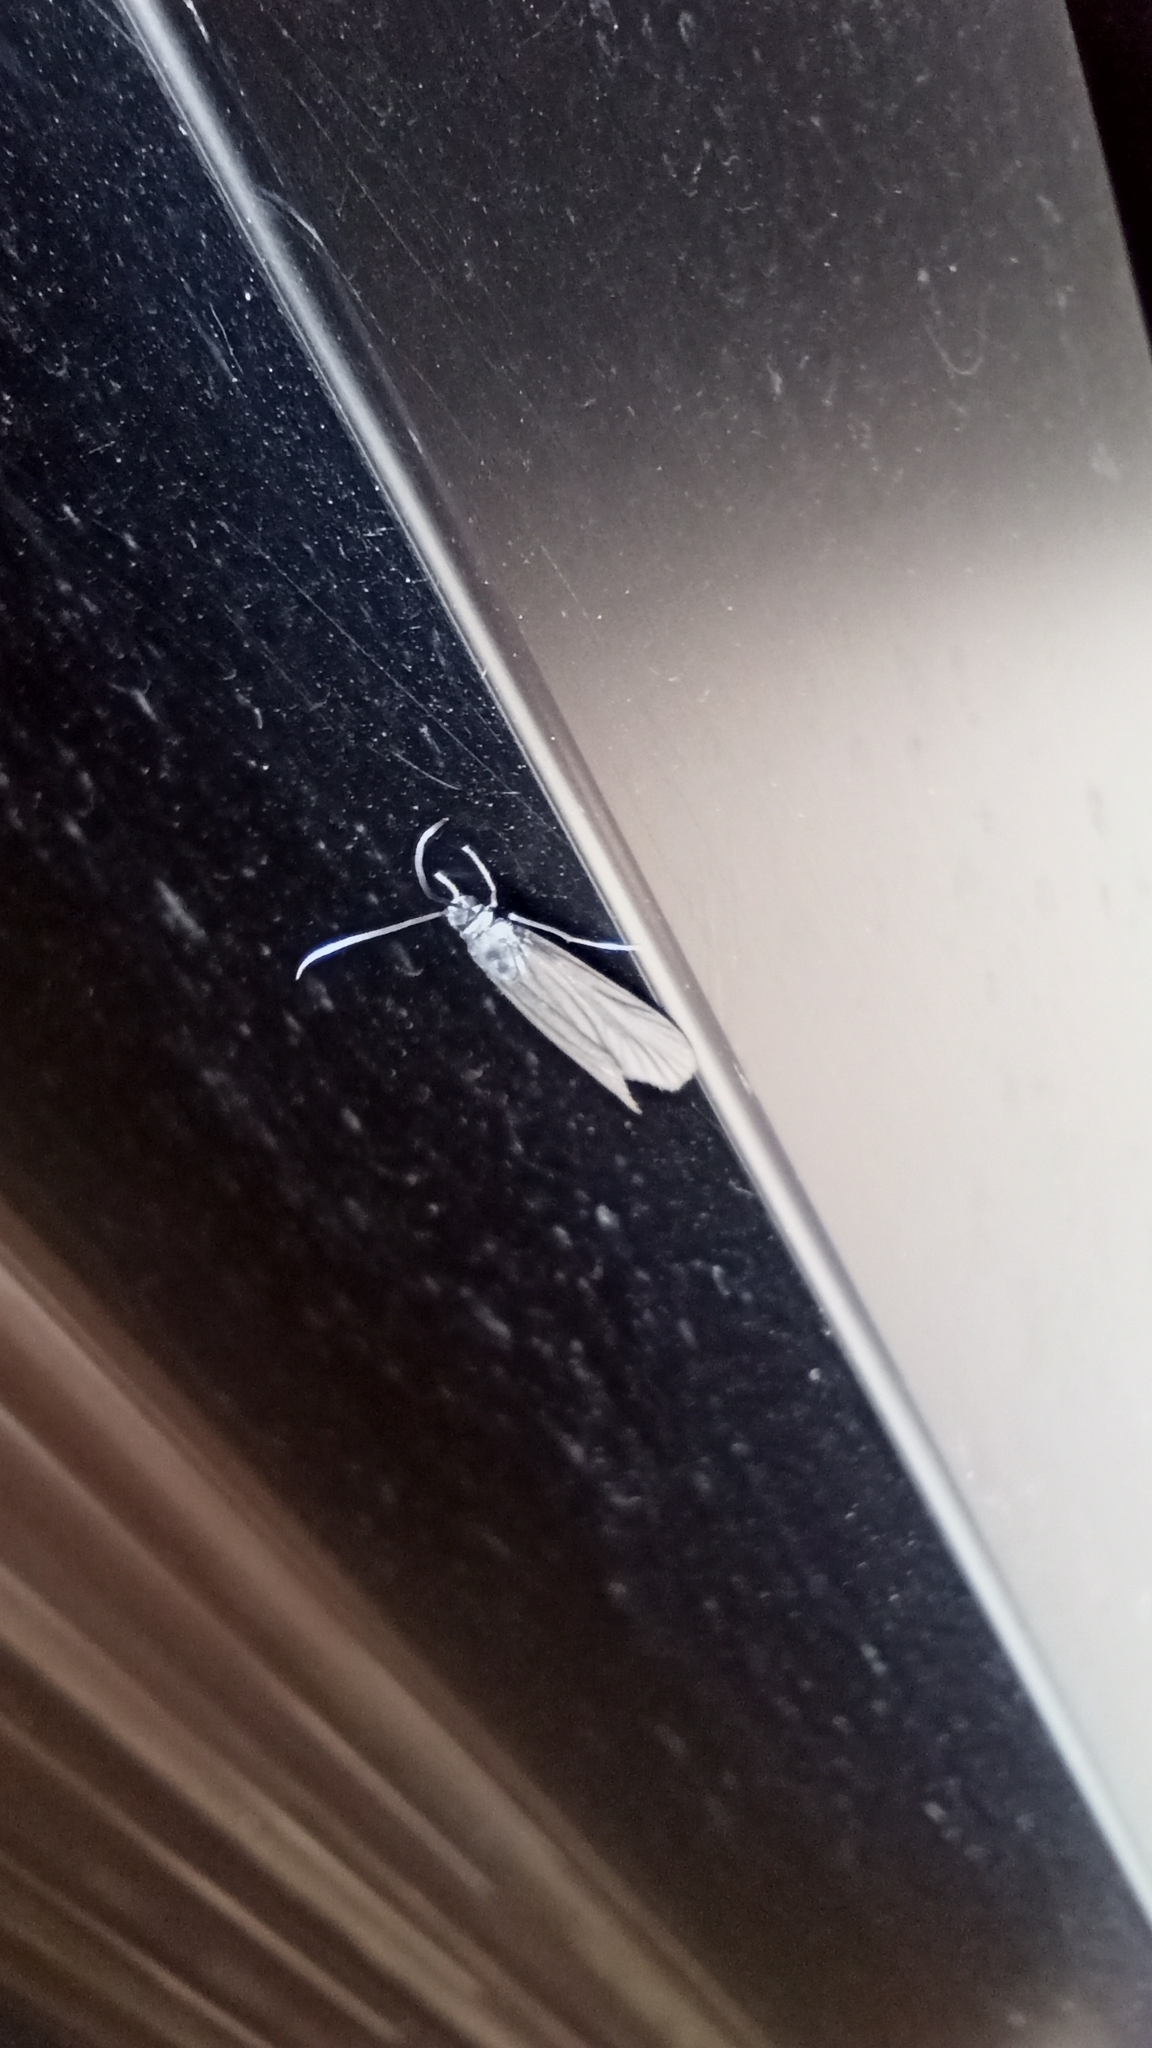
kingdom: Animalia
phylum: Arthropoda
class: Insecta
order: Lepidoptera
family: Zygaenidae
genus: Artona
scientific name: Artona martini
